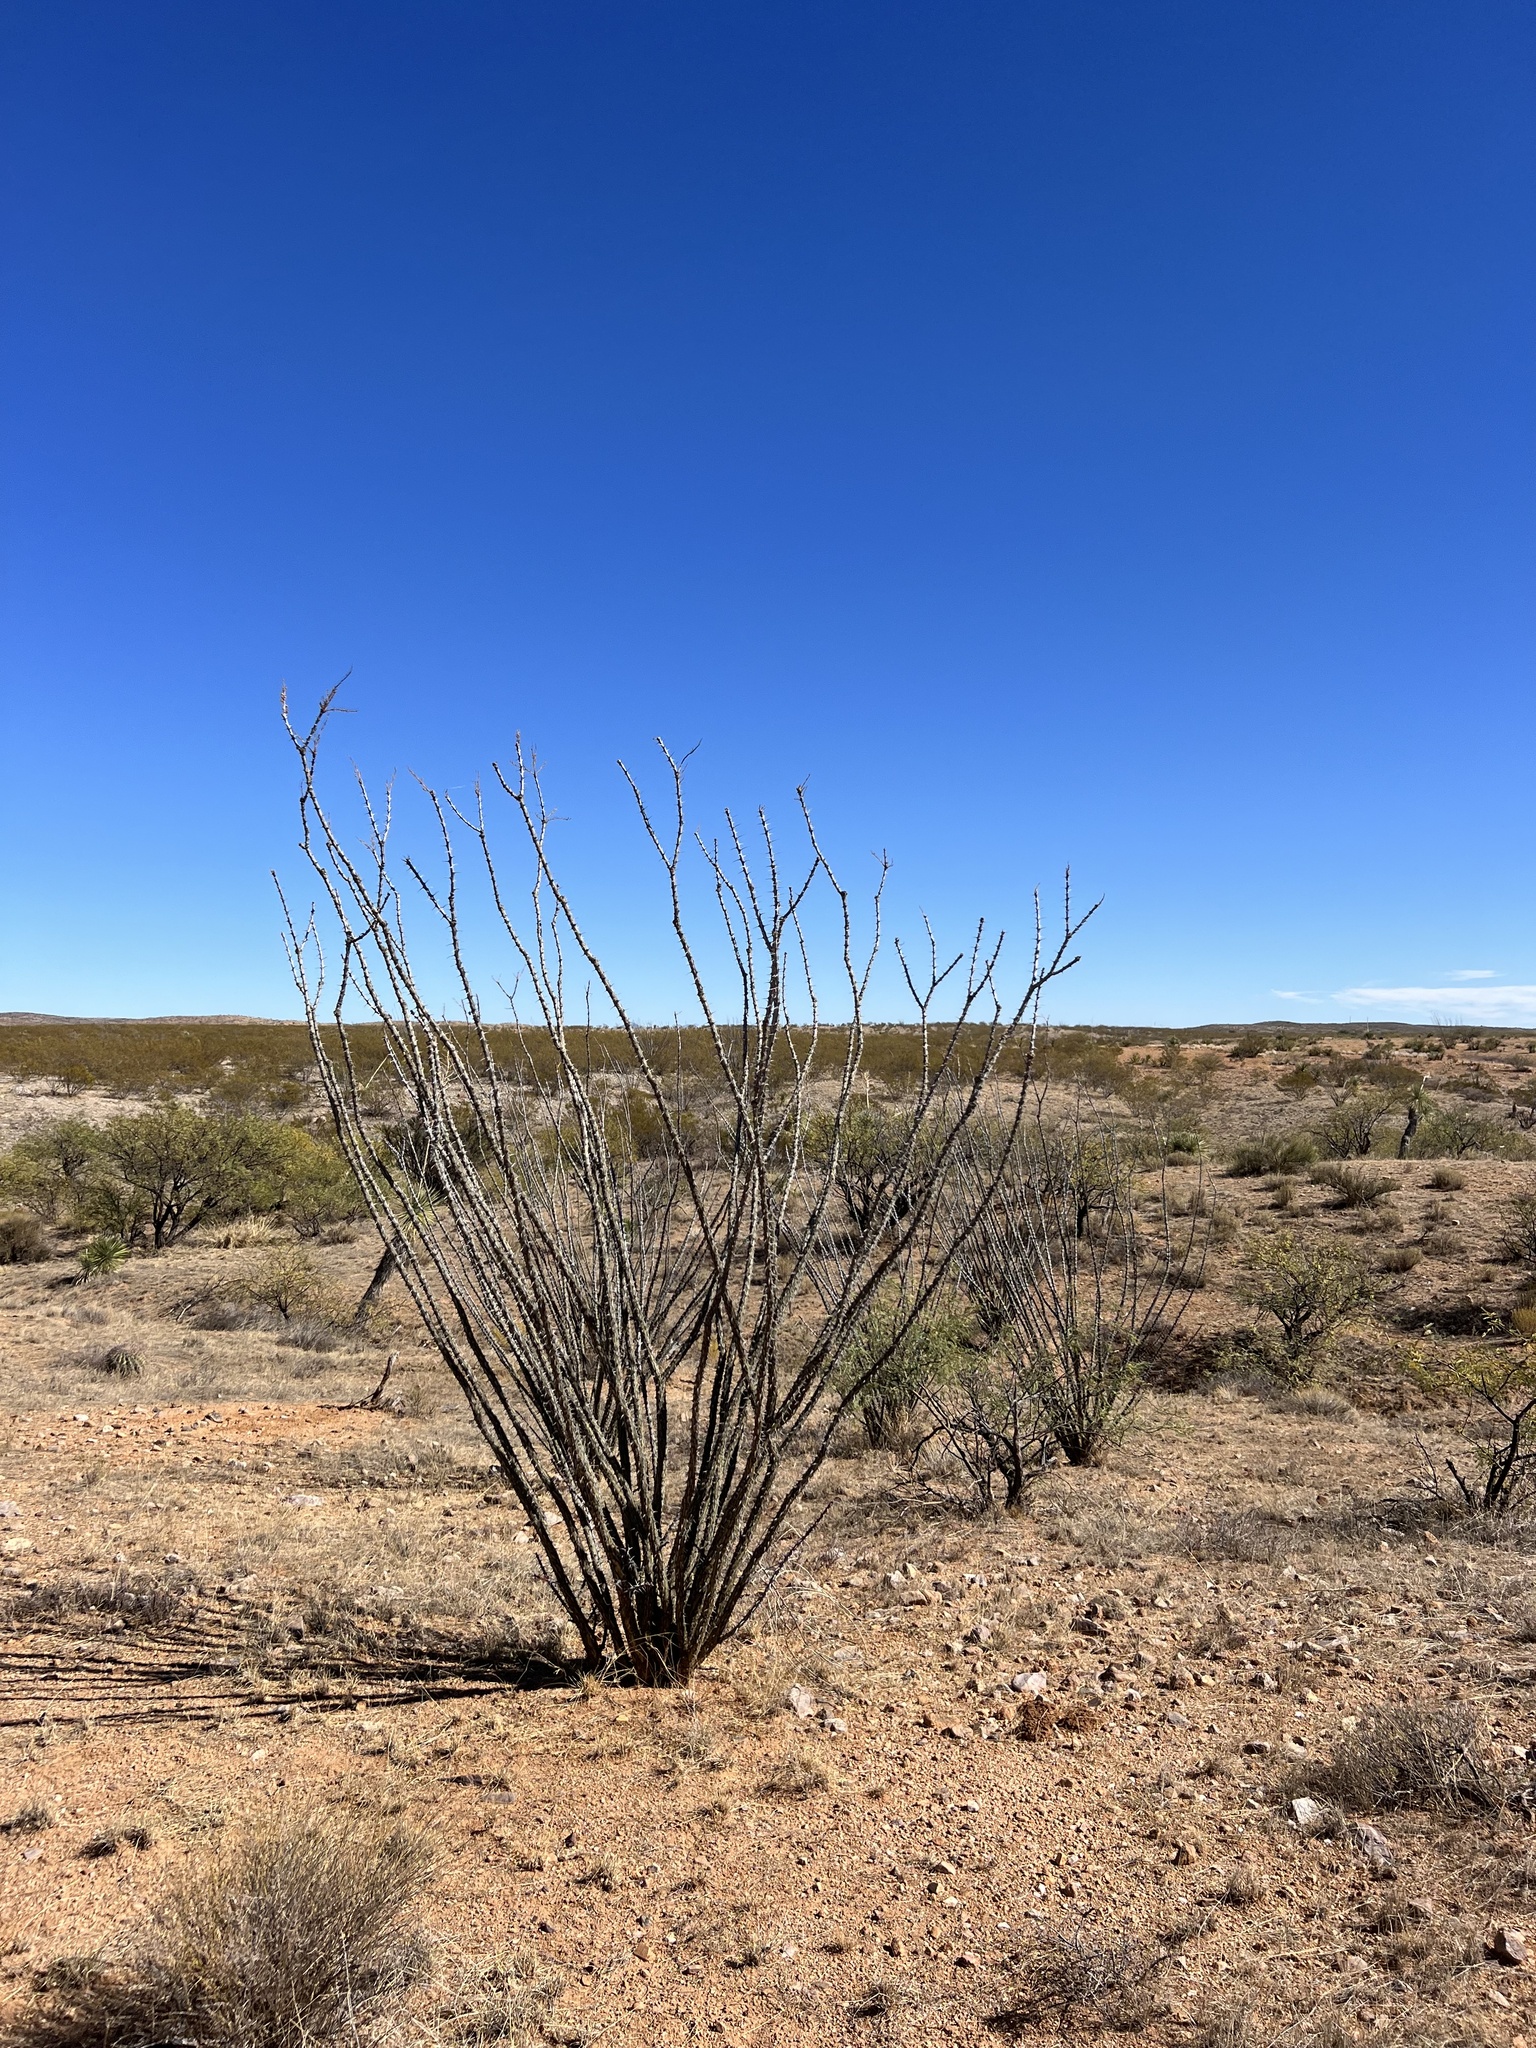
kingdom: Plantae
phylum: Tracheophyta
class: Magnoliopsida
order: Ericales
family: Fouquieriaceae
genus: Fouquieria
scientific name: Fouquieria splendens
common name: Vine-cactus
